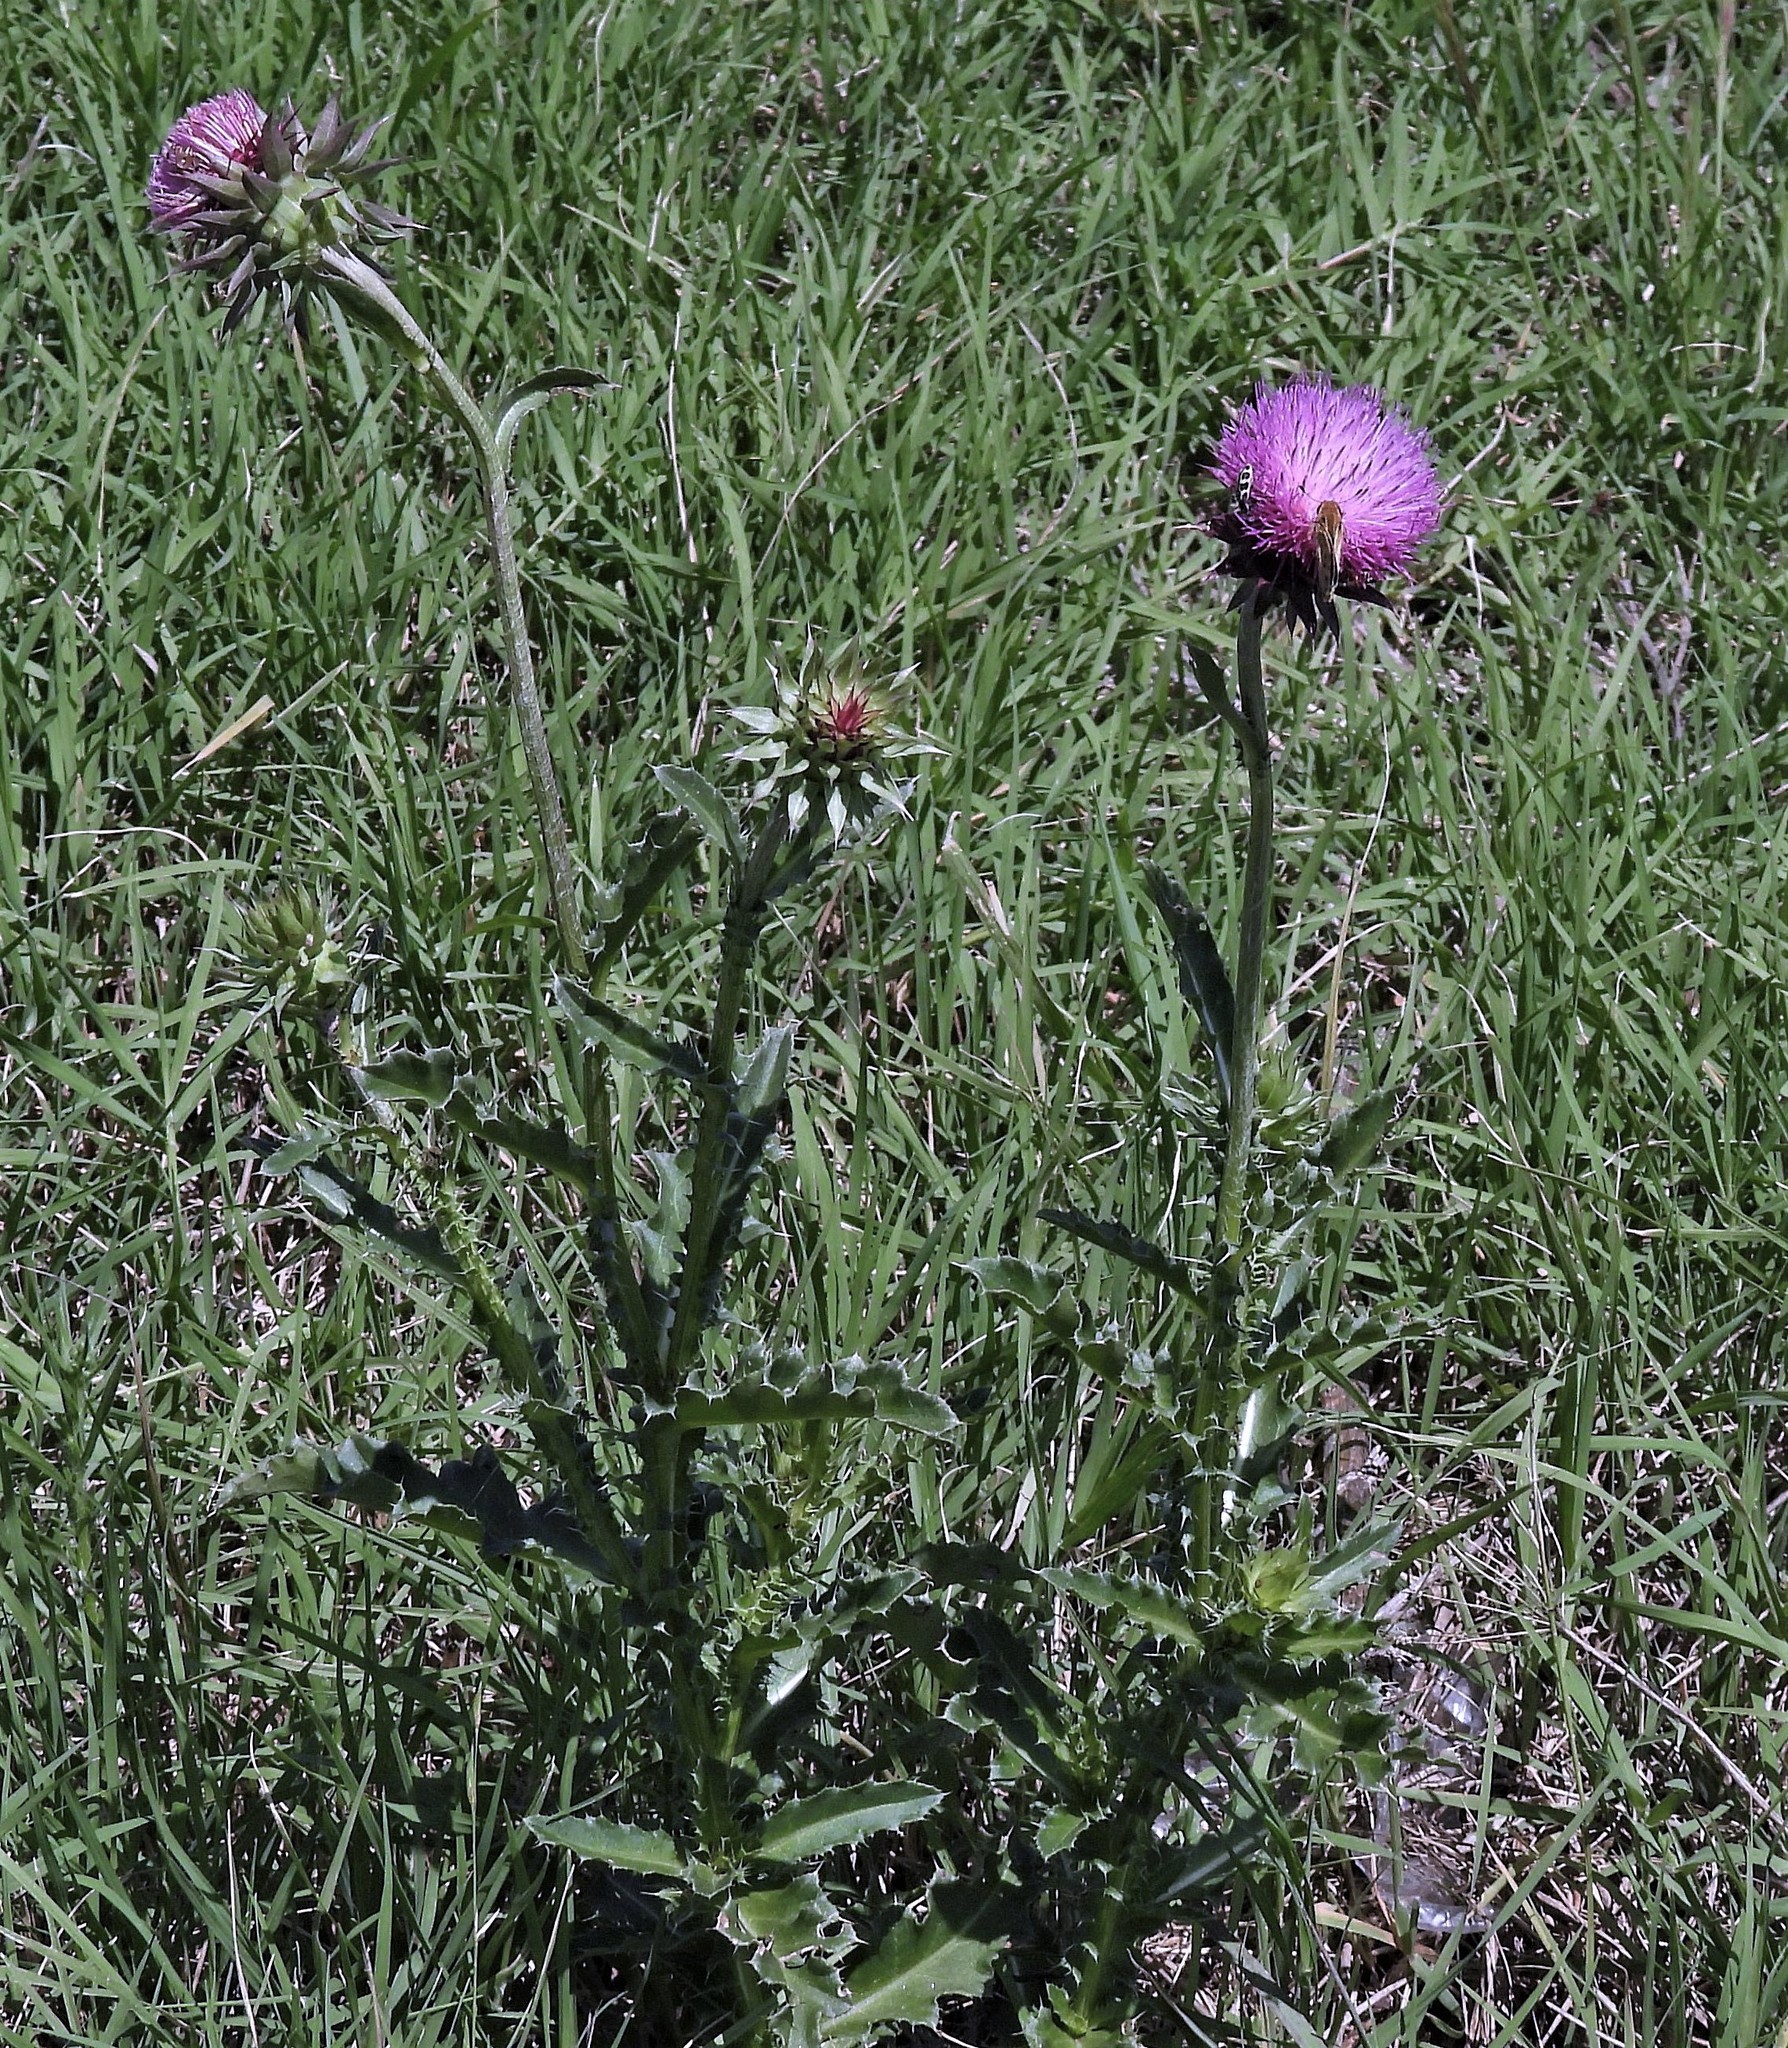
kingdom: Plantae
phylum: Tracheophyta
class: Magnoliopsida
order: Asterales
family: Asteraceae
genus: Carduus
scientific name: Carduus nutans
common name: Musk thistle
